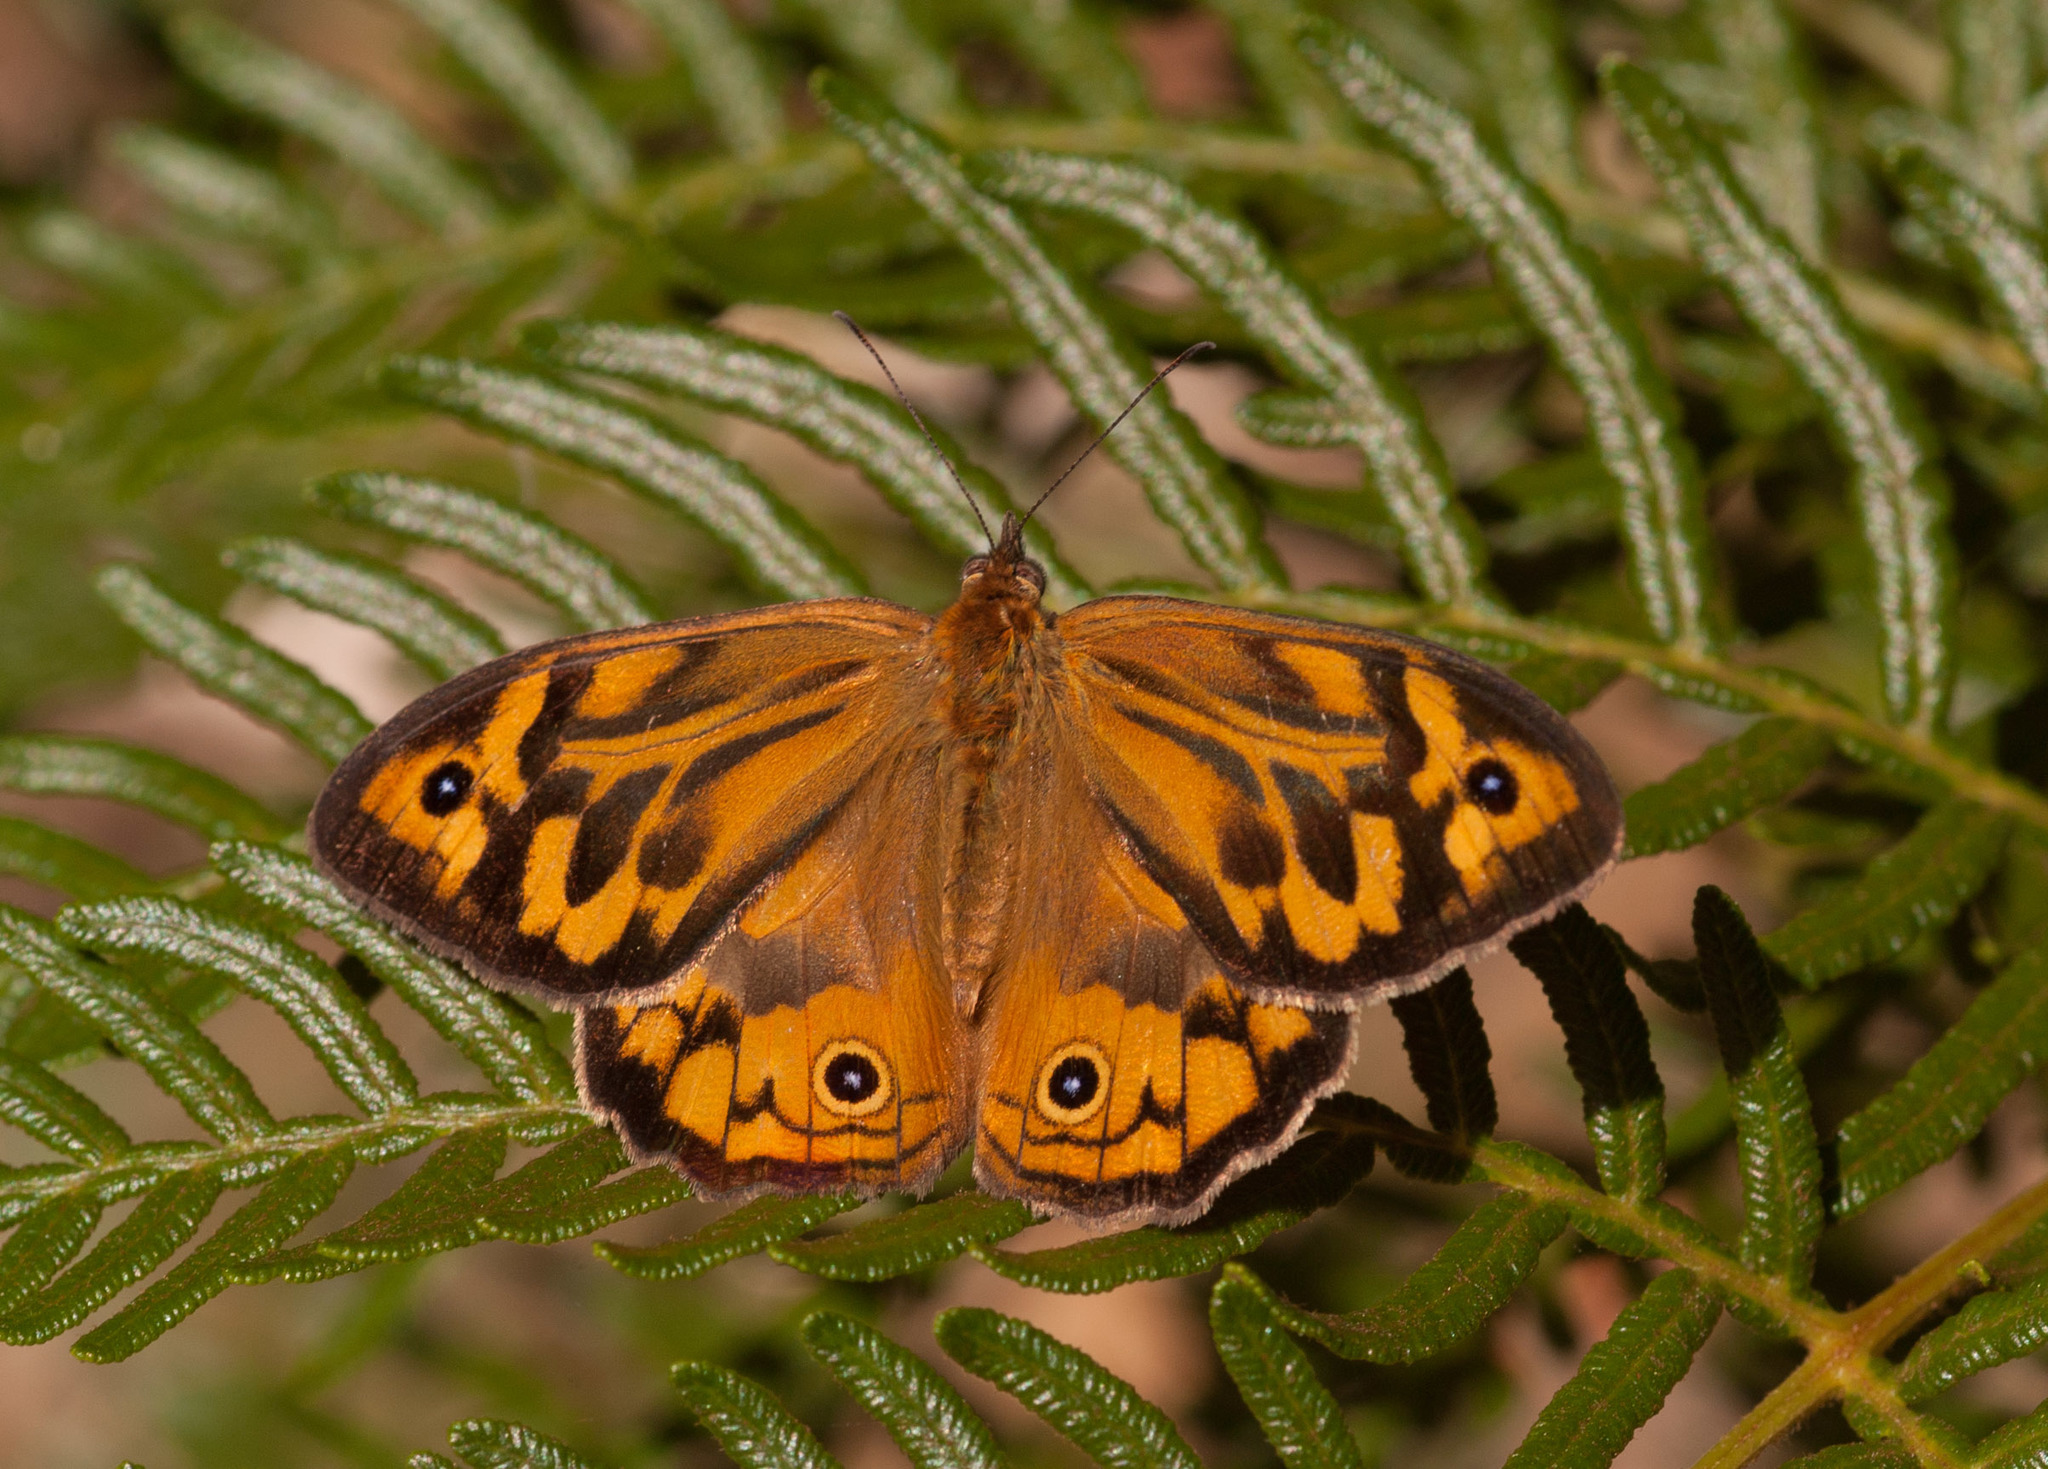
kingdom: Animalia
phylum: Arthropoda
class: Insecta
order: Lepidoptera
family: Nymphalidae
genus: Heteronympha
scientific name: Heteronympha merope
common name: Common brown
